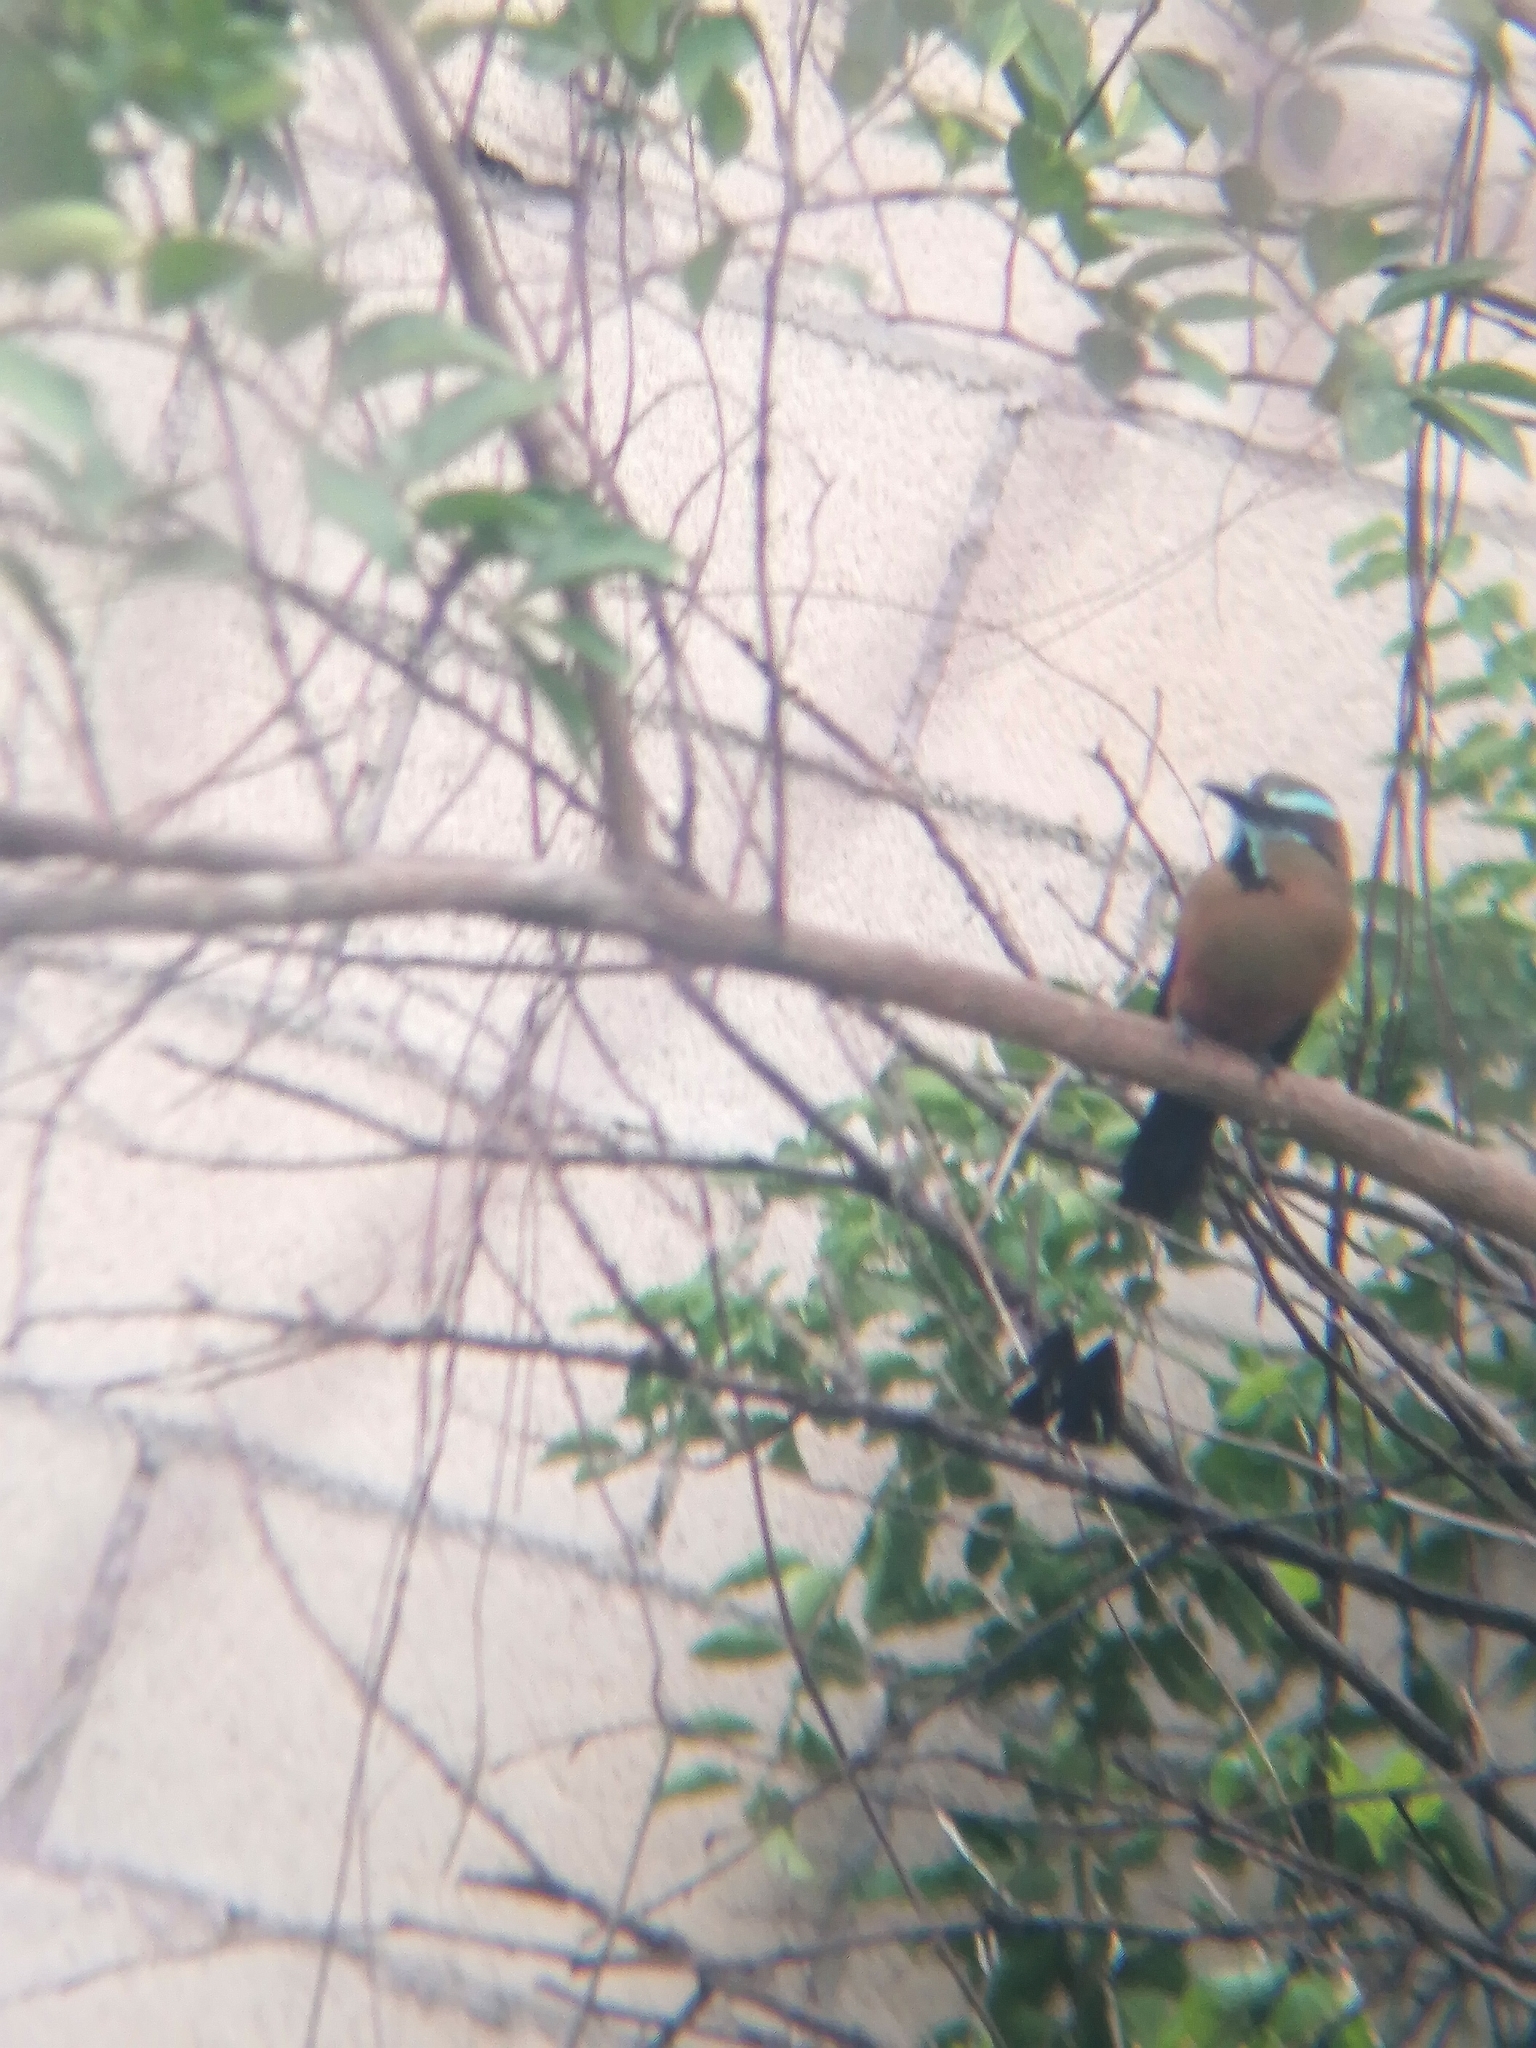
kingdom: Animalia
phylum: Chordata
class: Aves
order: Coraciiformes
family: Momotidae
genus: Eumomota
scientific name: Eumomota superciliosa
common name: Turquoise-browed motmot
